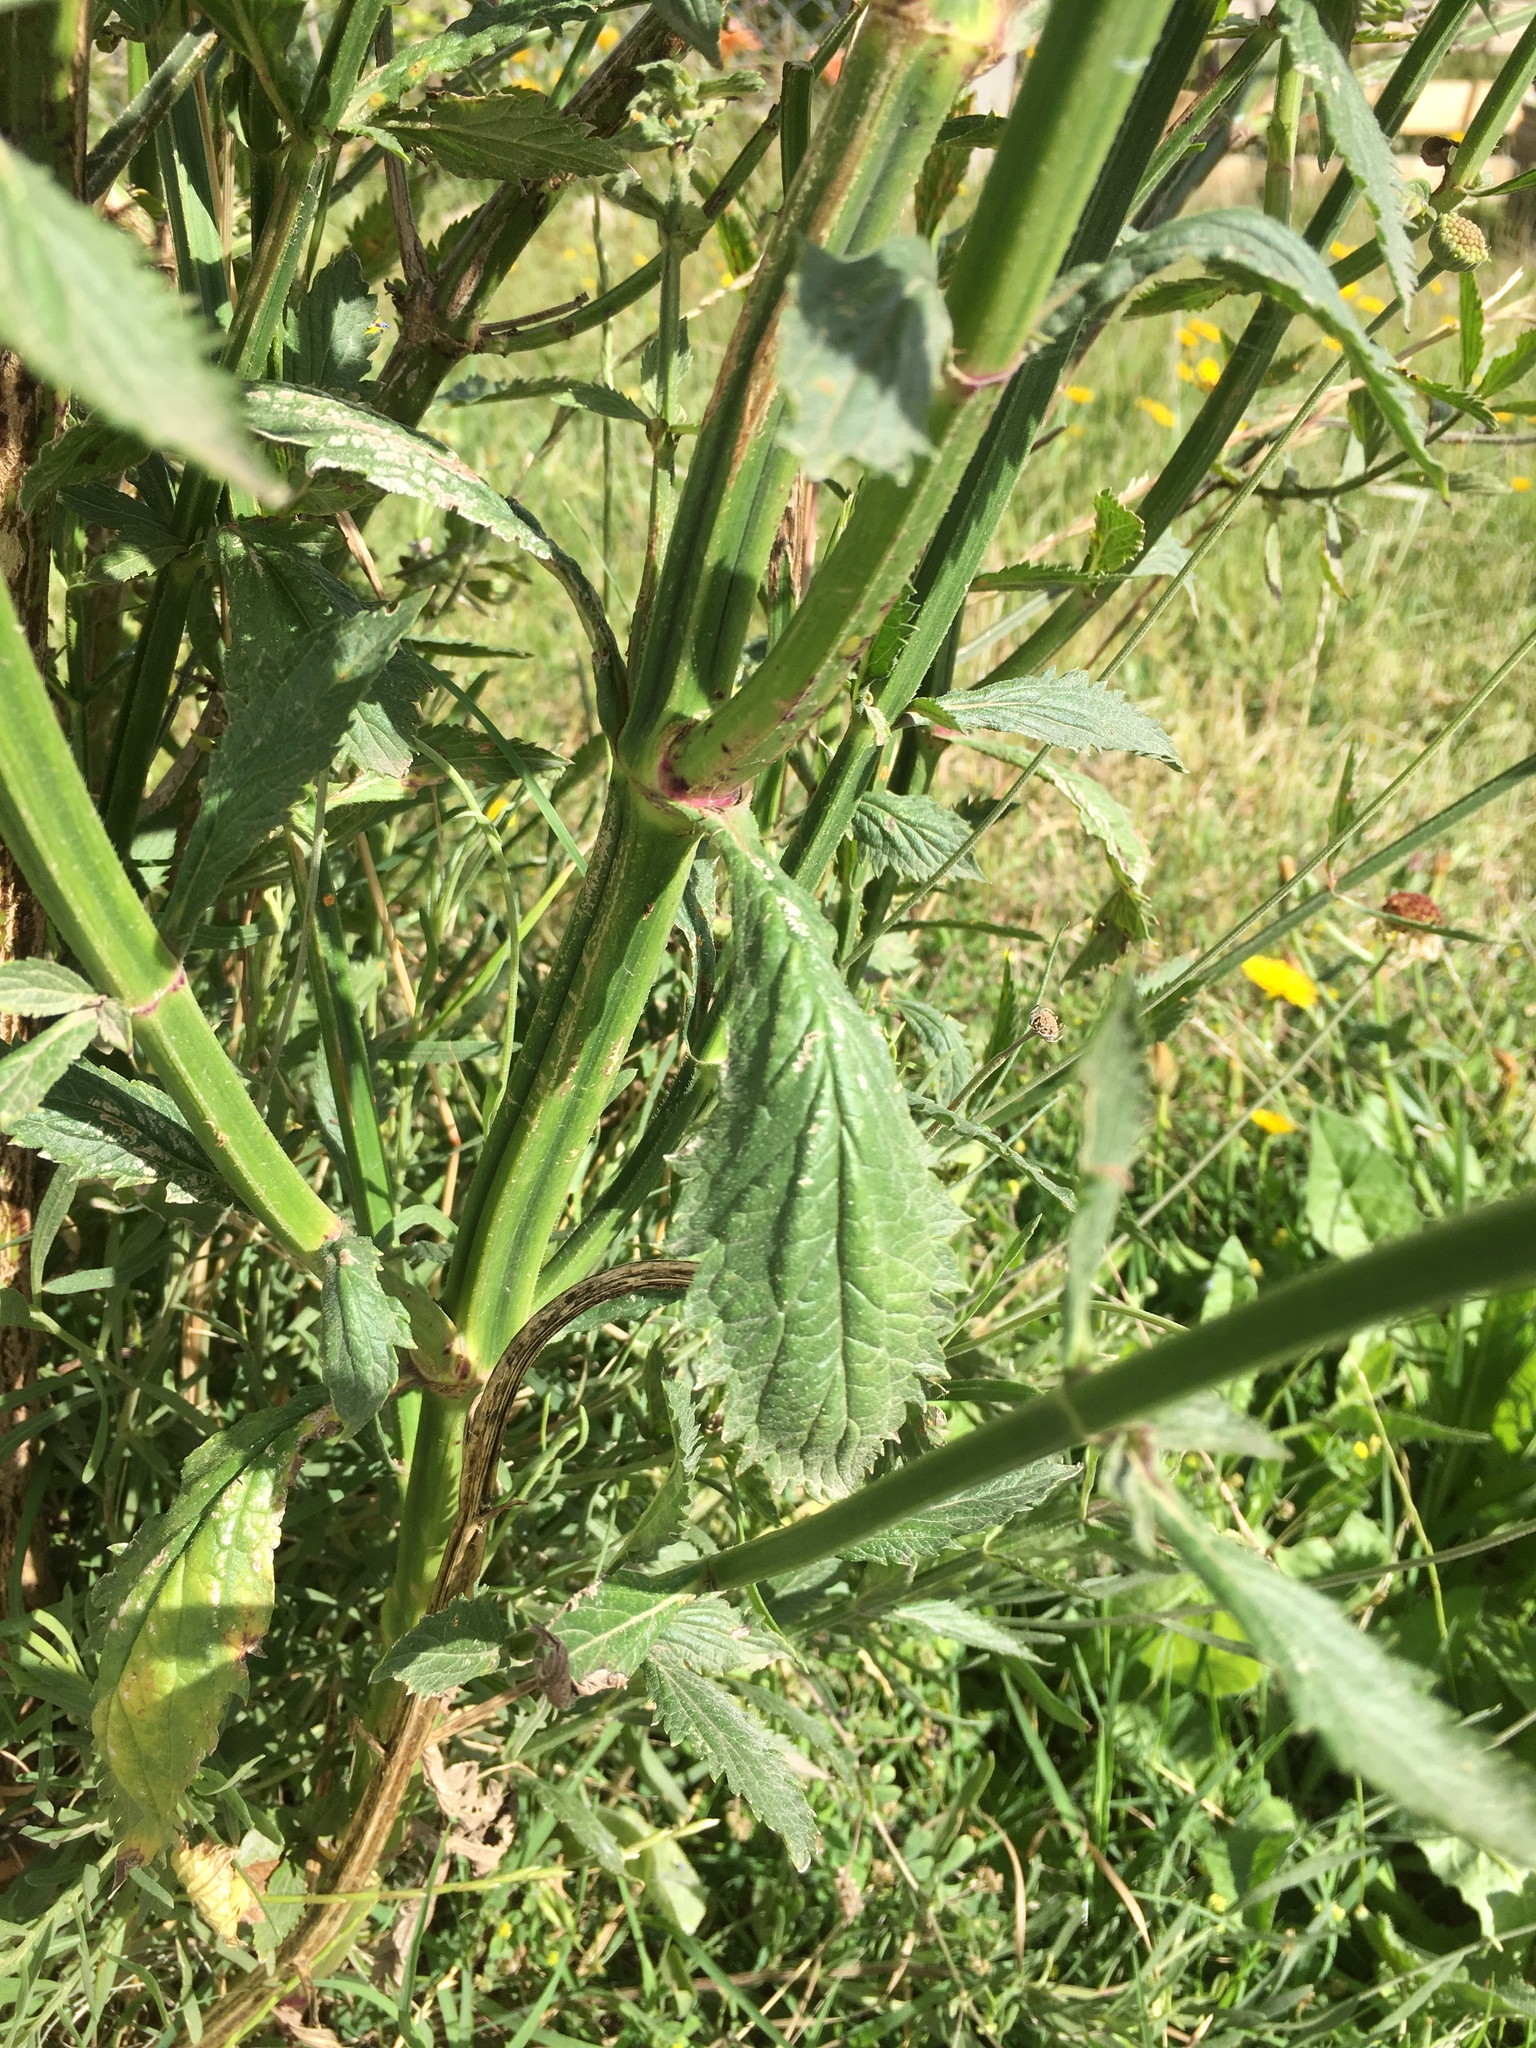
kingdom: Plantae
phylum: Tracheophyta
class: Magnoliopsida
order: Lamiales
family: Verbenaceae
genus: Verbena
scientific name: Verbena brasiliensis
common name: Brazilian vervain
